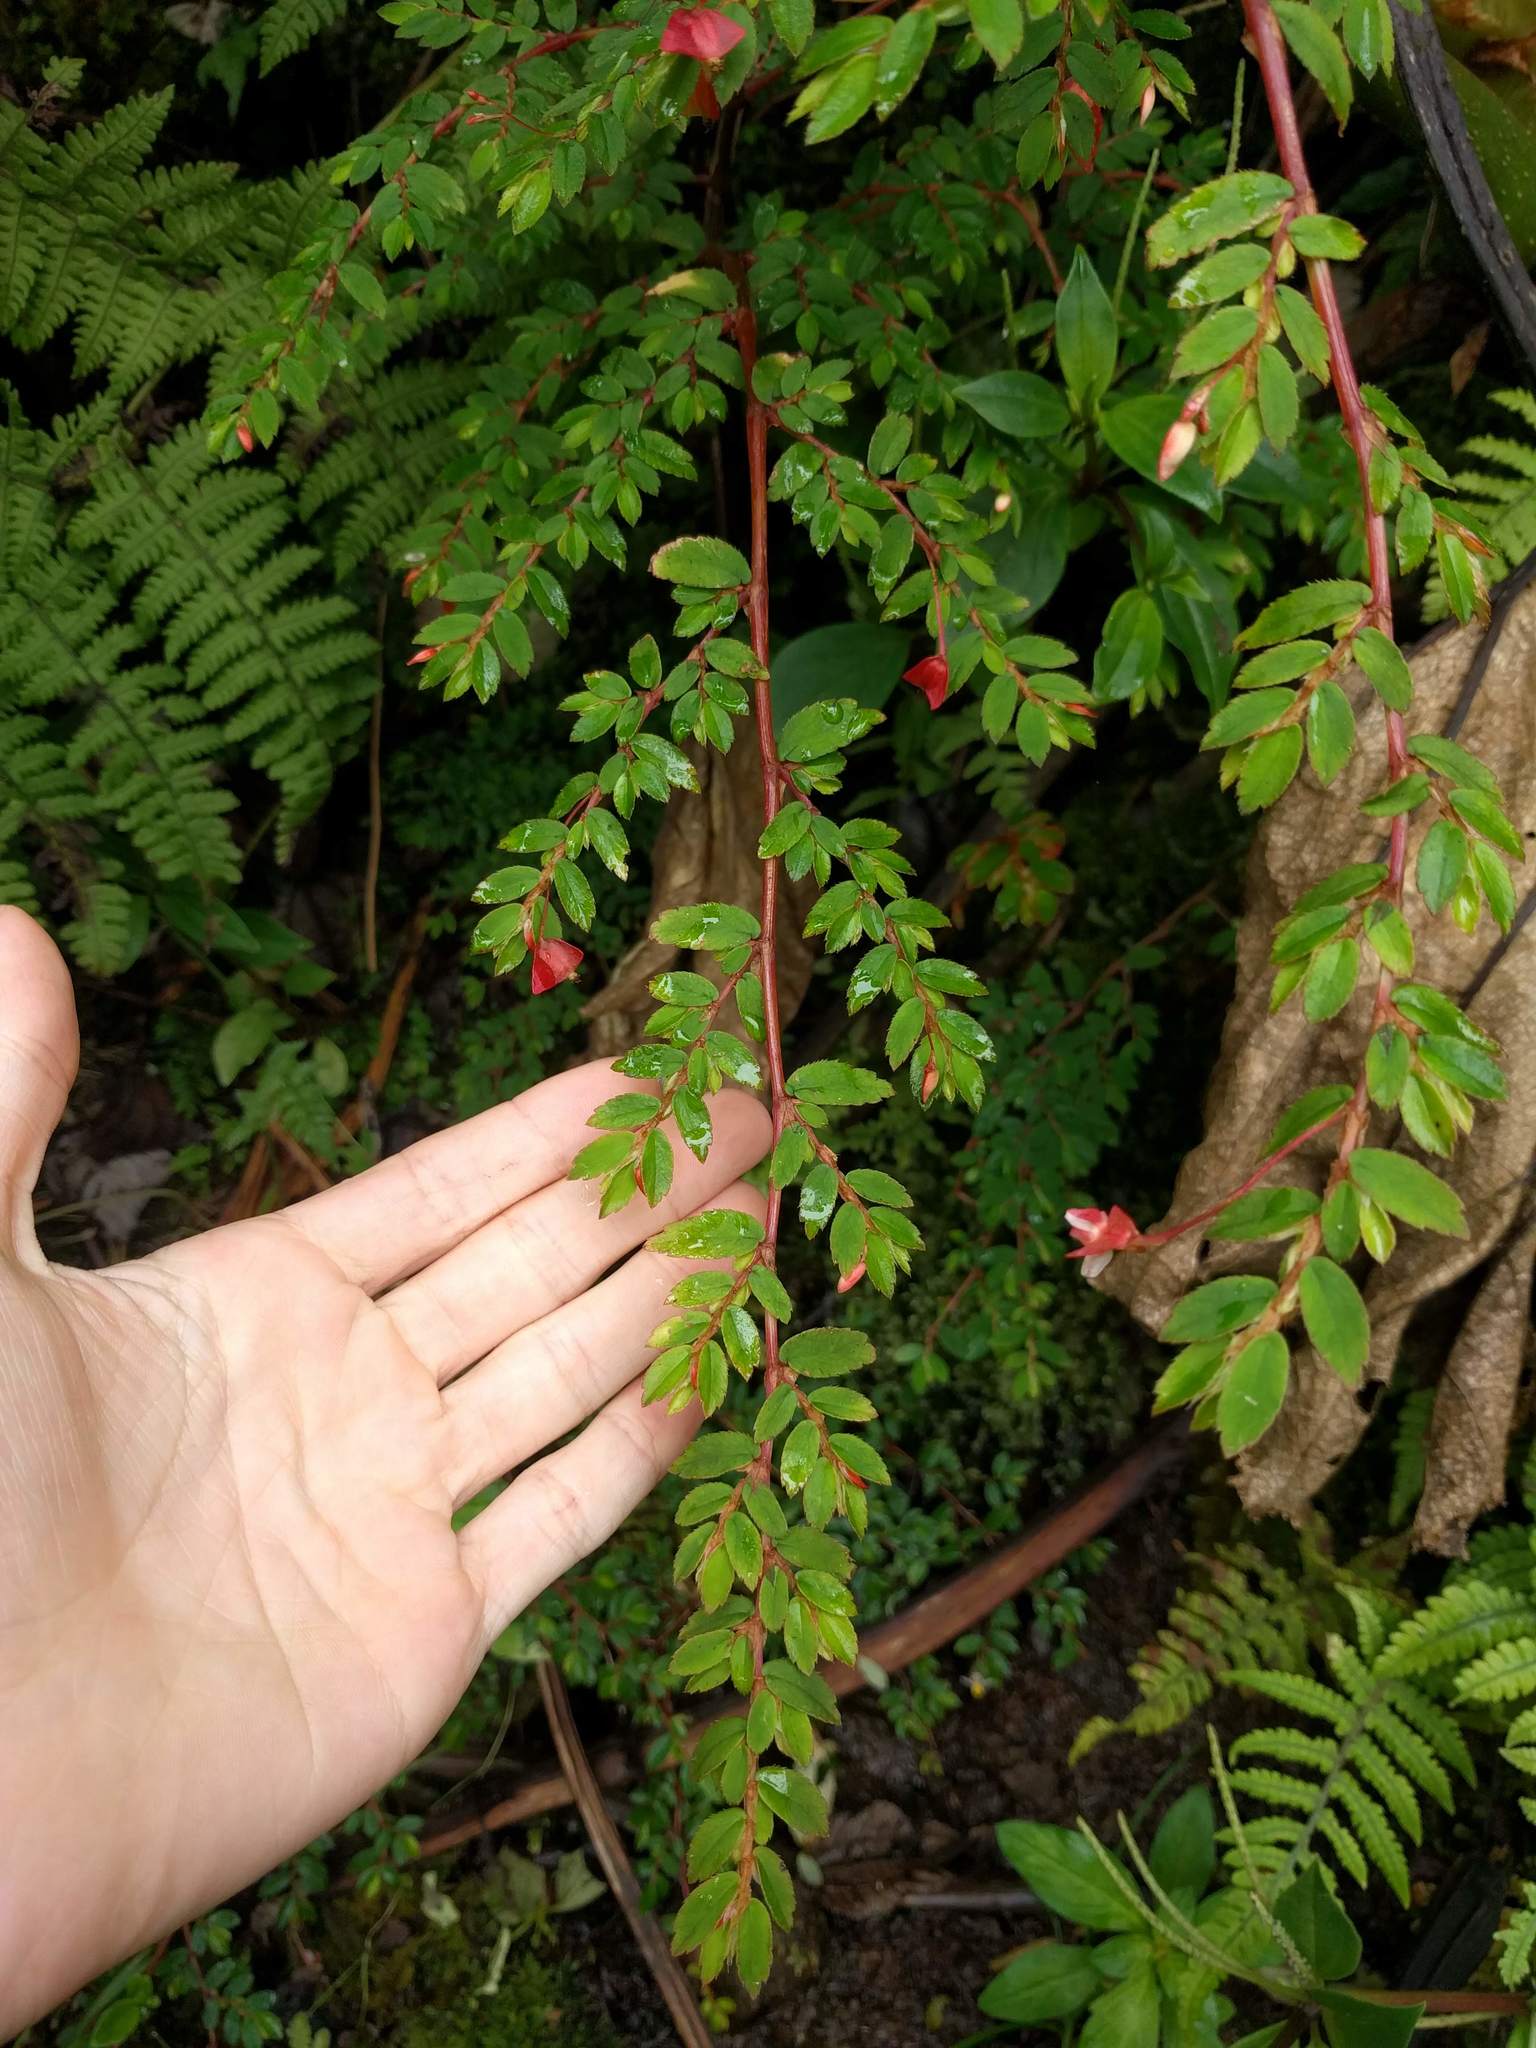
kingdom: Plantae
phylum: Tracheophyta
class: Magnoliopsida
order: Cucurbitales
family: Begoniaceae
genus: Begonia
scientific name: Begonia foliosa
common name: Fern begonia
